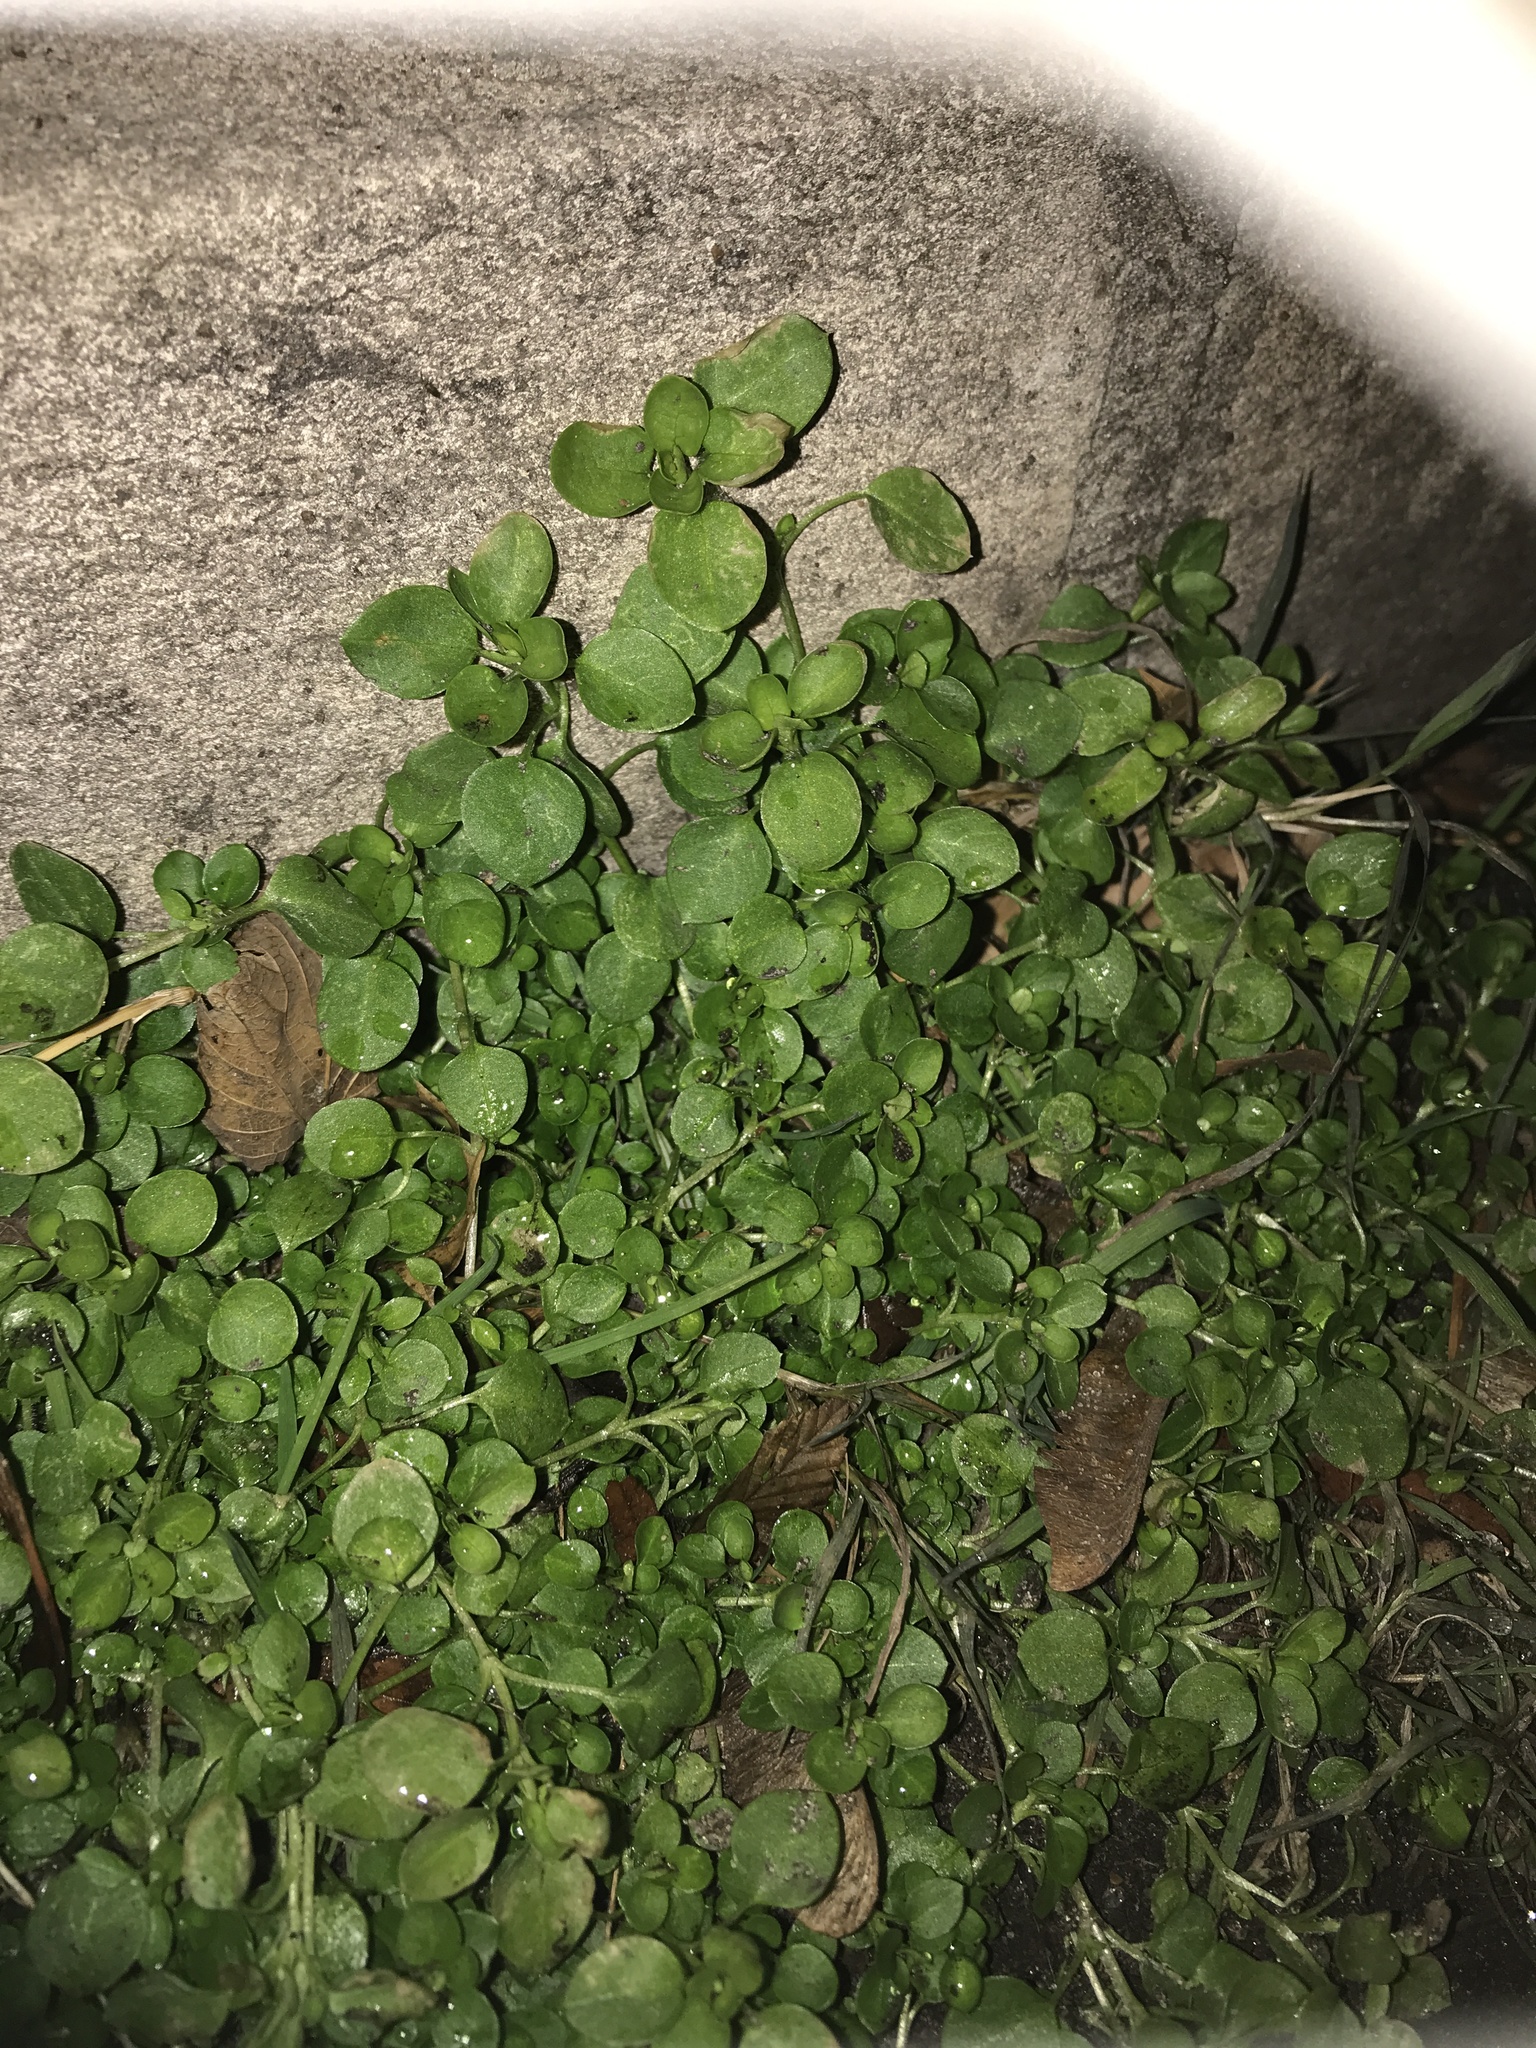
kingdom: Plantae
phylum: Tracheophyta
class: Magnoliopsida
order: Caryophyllales
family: Caryophyllaceae
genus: Stellaria
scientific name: Stellaria media
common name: Common chickweed
